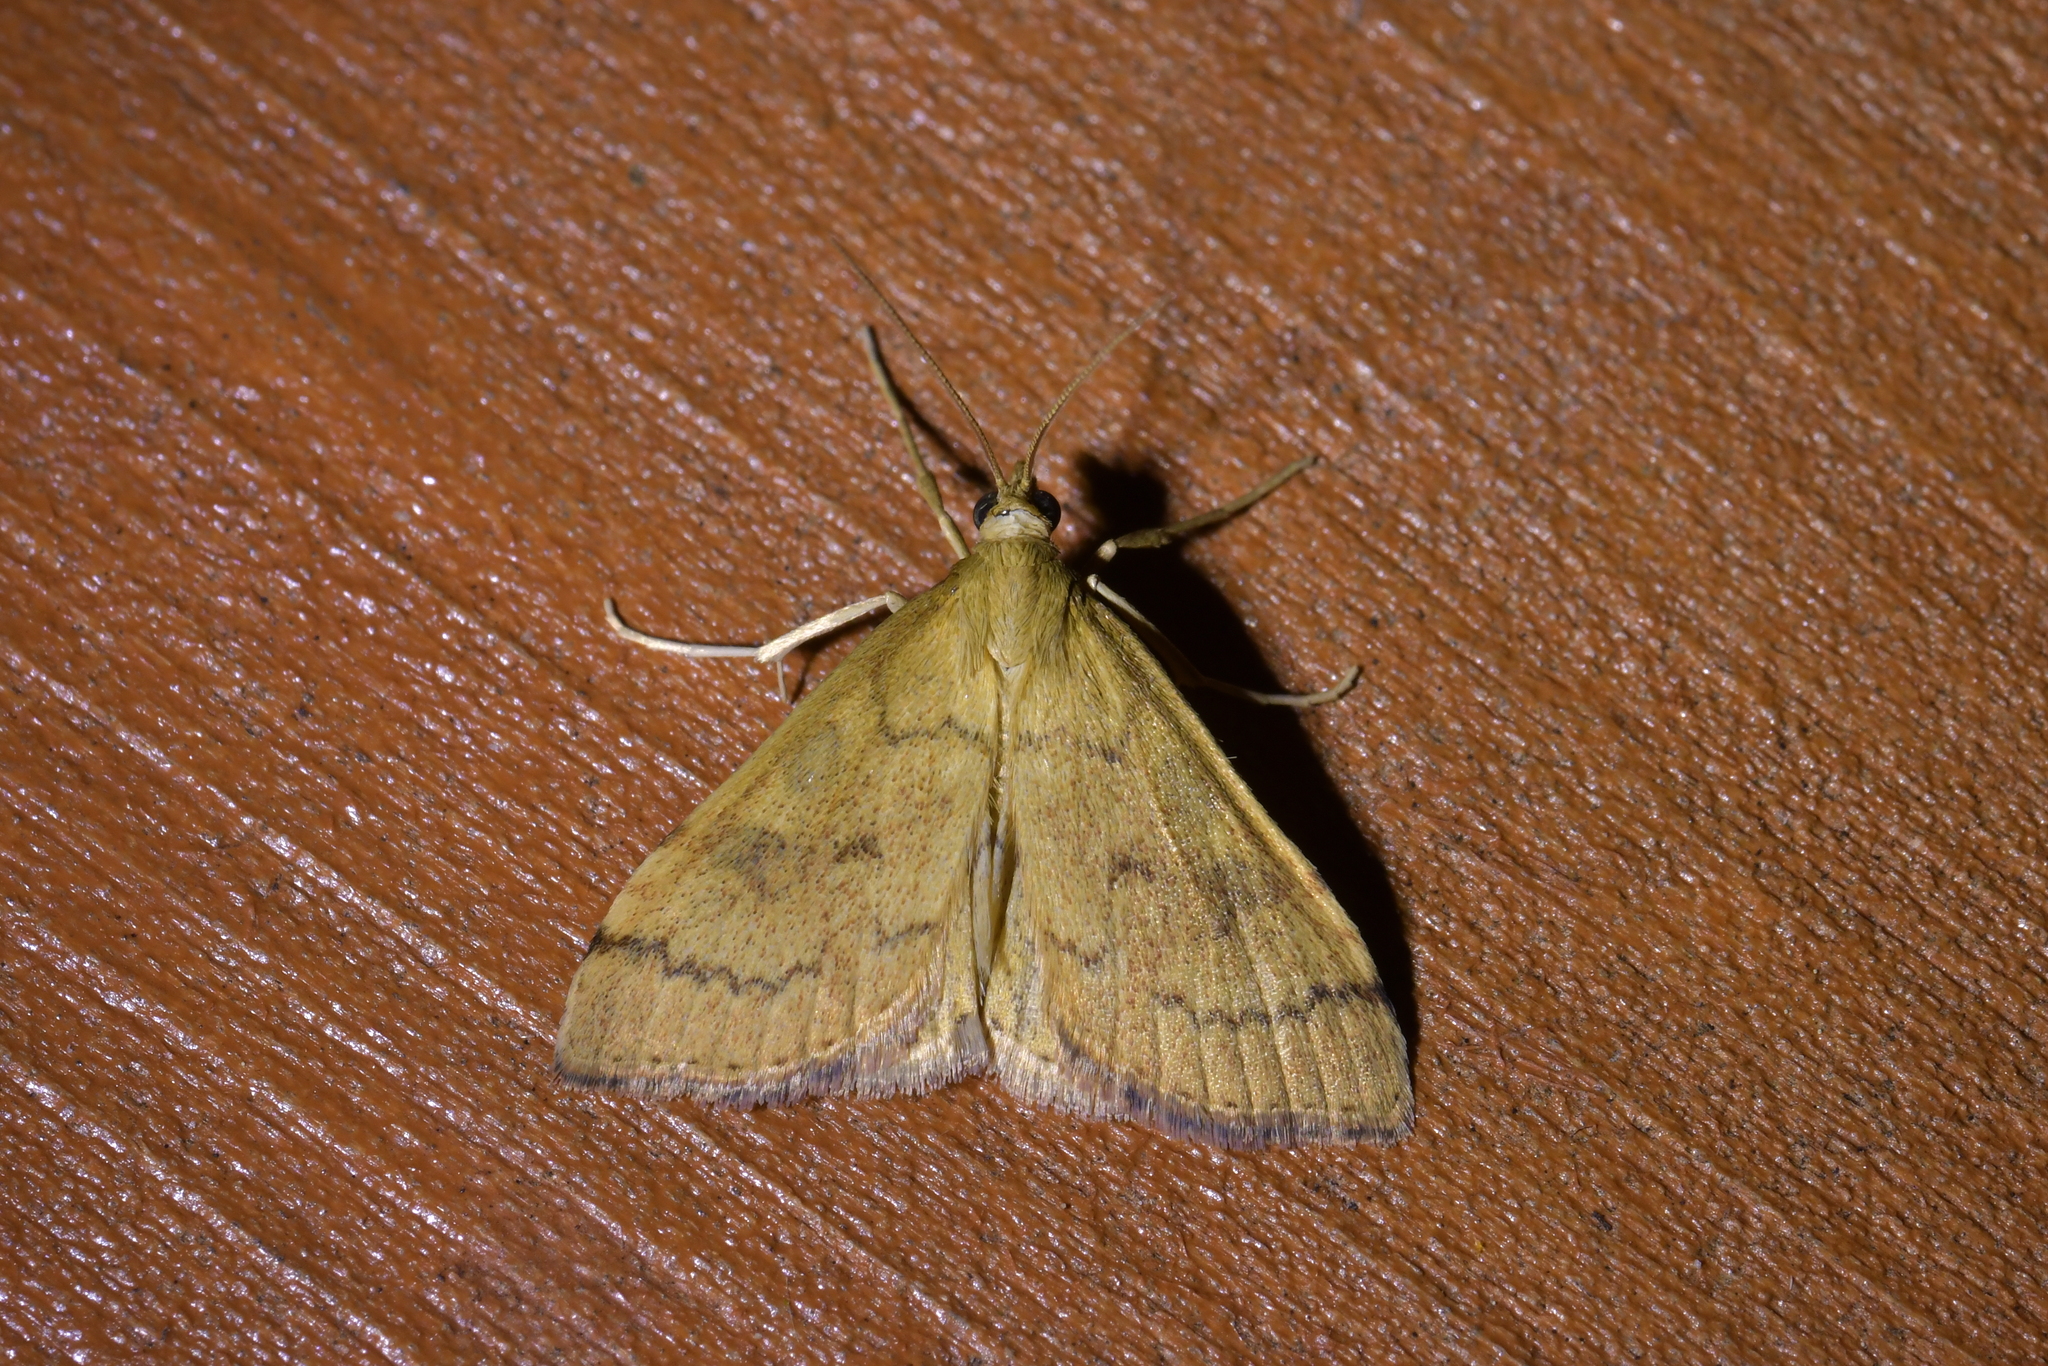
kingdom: Animalia
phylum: Arthropoda
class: Insecta
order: Lepidoptera
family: Crambidae
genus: Udea
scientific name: Udea Mnesictena flavidalis
